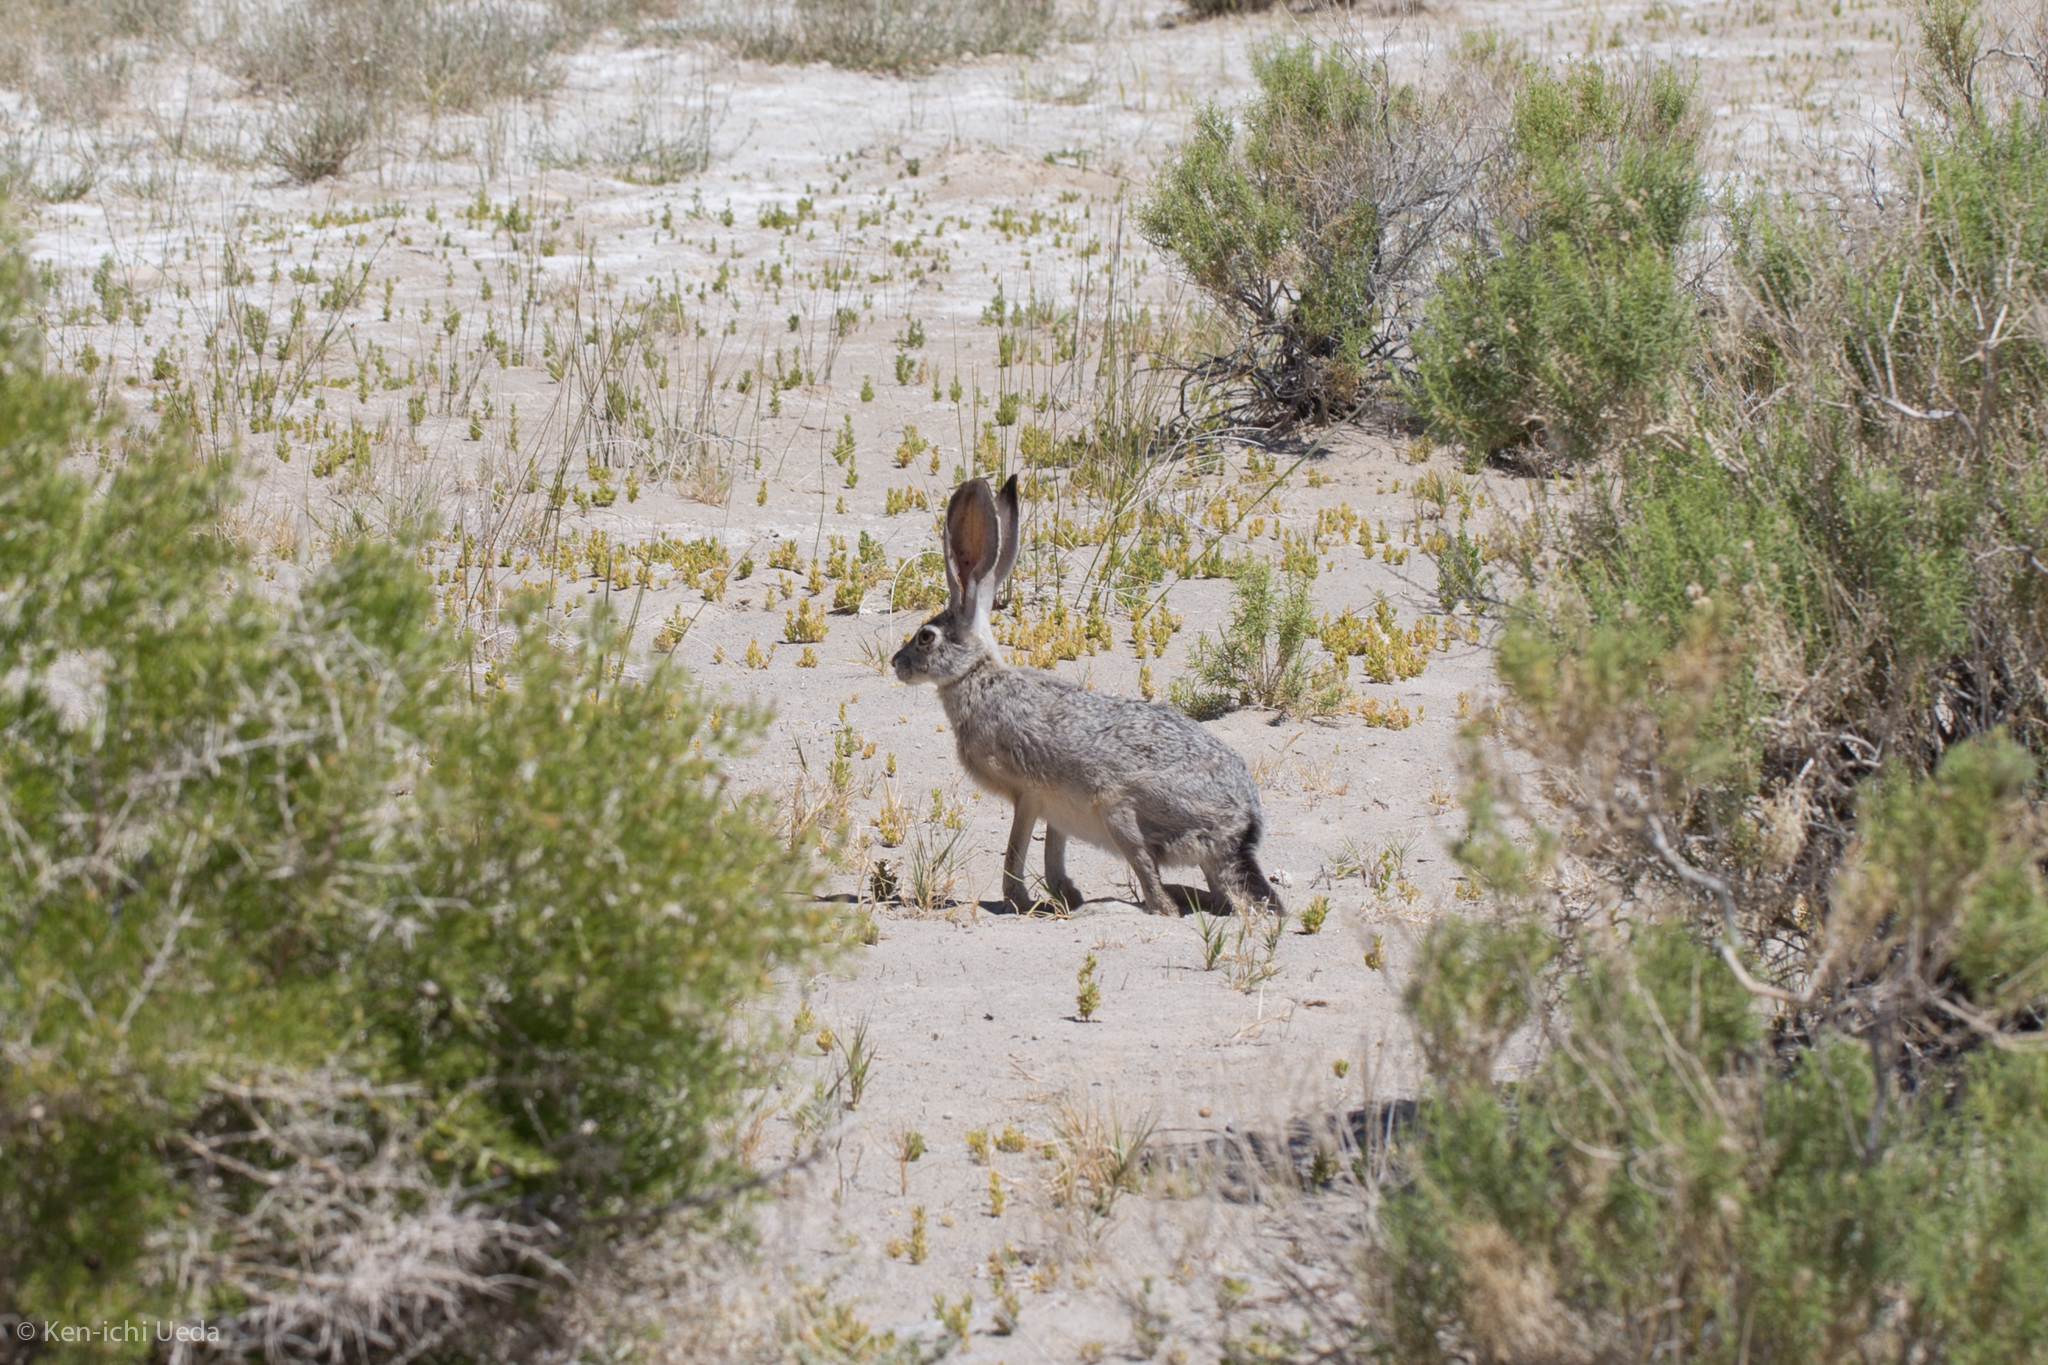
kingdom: Animalia
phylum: Chordata
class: Mammalia
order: Lagomorpha
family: Leporidae
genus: Lepus
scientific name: Lepus californicus
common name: Black-tailed jackrabbit
